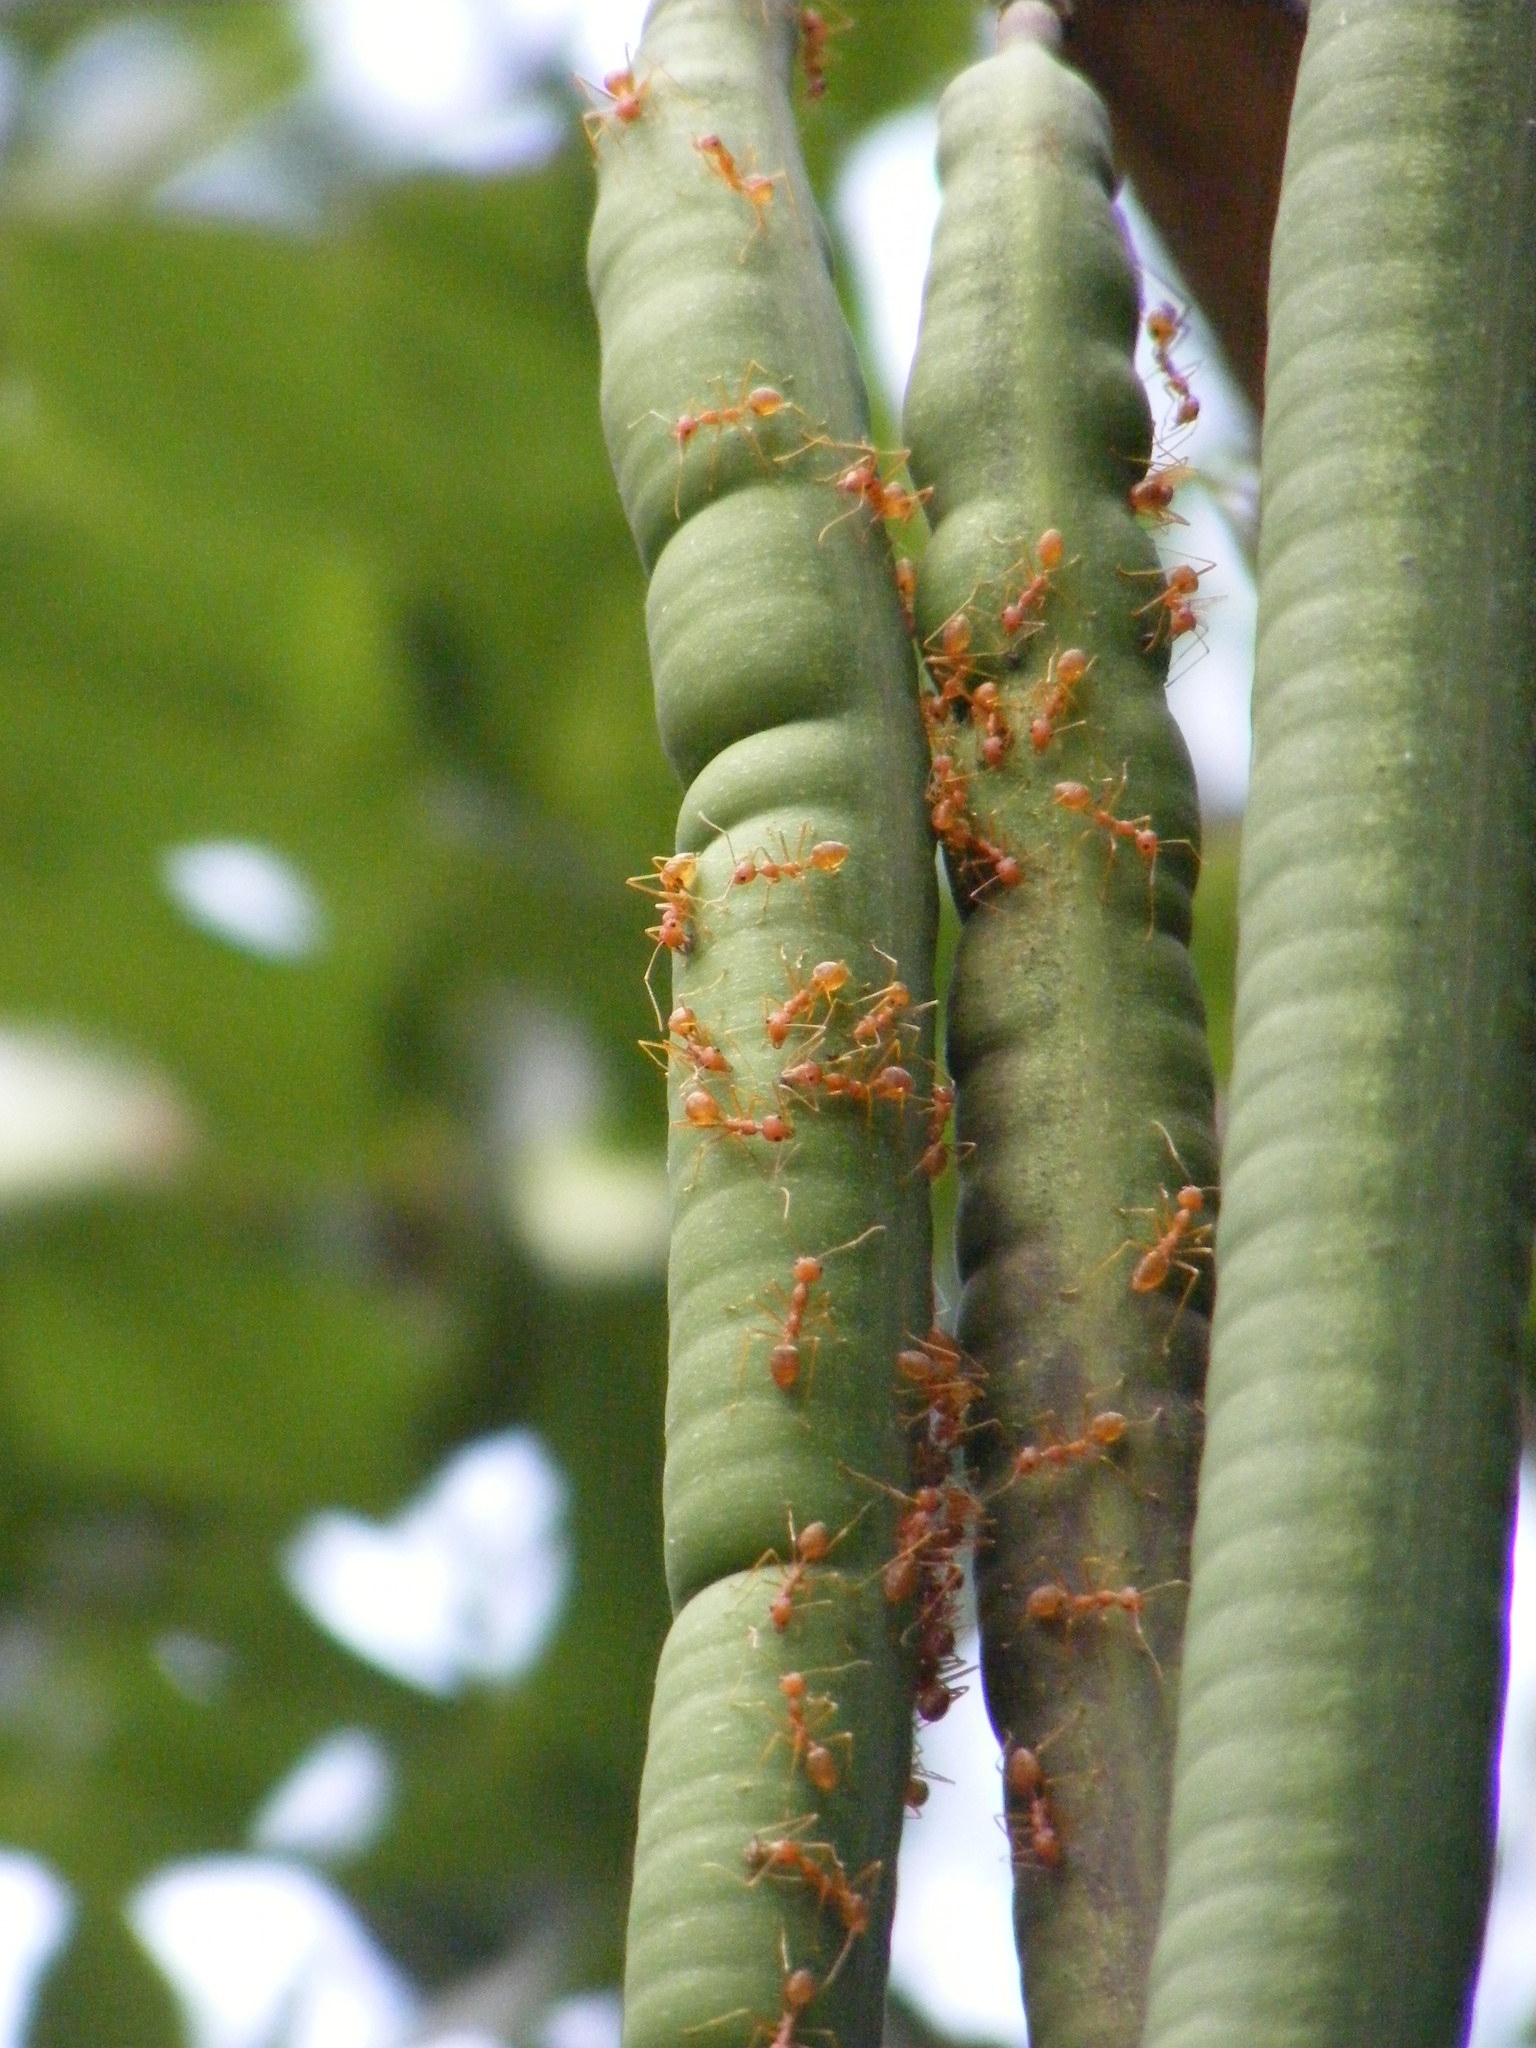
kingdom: Animalia
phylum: Arthropoda
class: Insecta
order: Hymenoptera
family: Formicidae
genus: Oecophylla
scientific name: Oecophylla smaragdina
